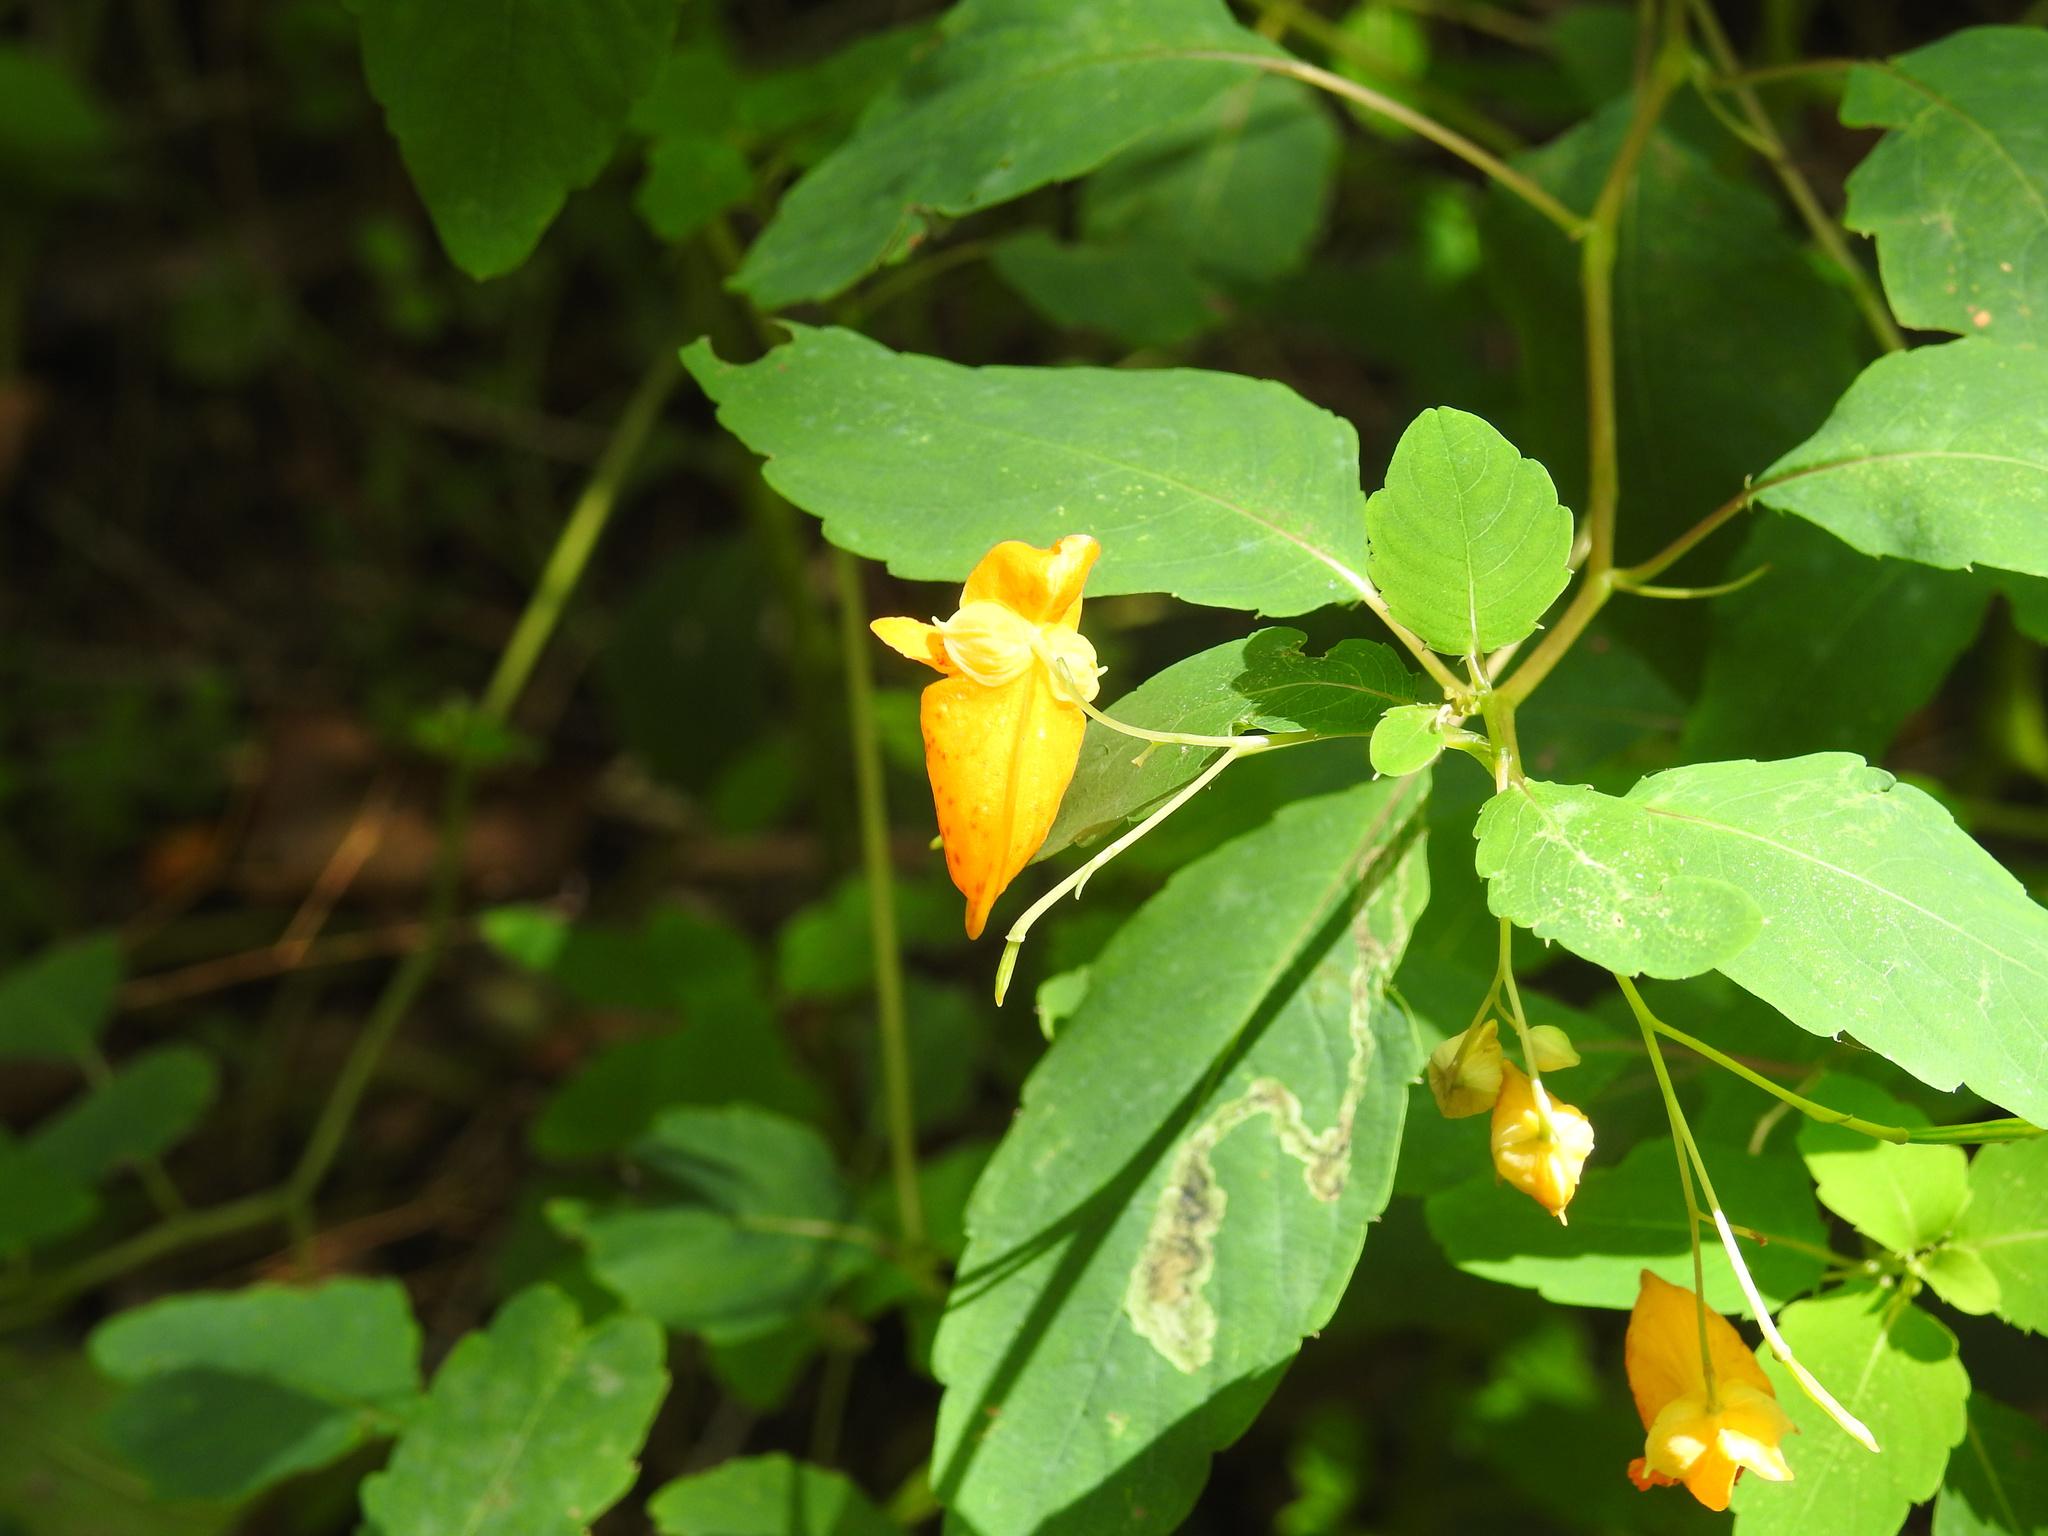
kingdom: Plantae
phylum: Tracheophyta
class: Magnoliopsida
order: Ericales
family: Balsaminaceae
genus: Impatiens
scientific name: Impatiens capensis
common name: Orange balsam
